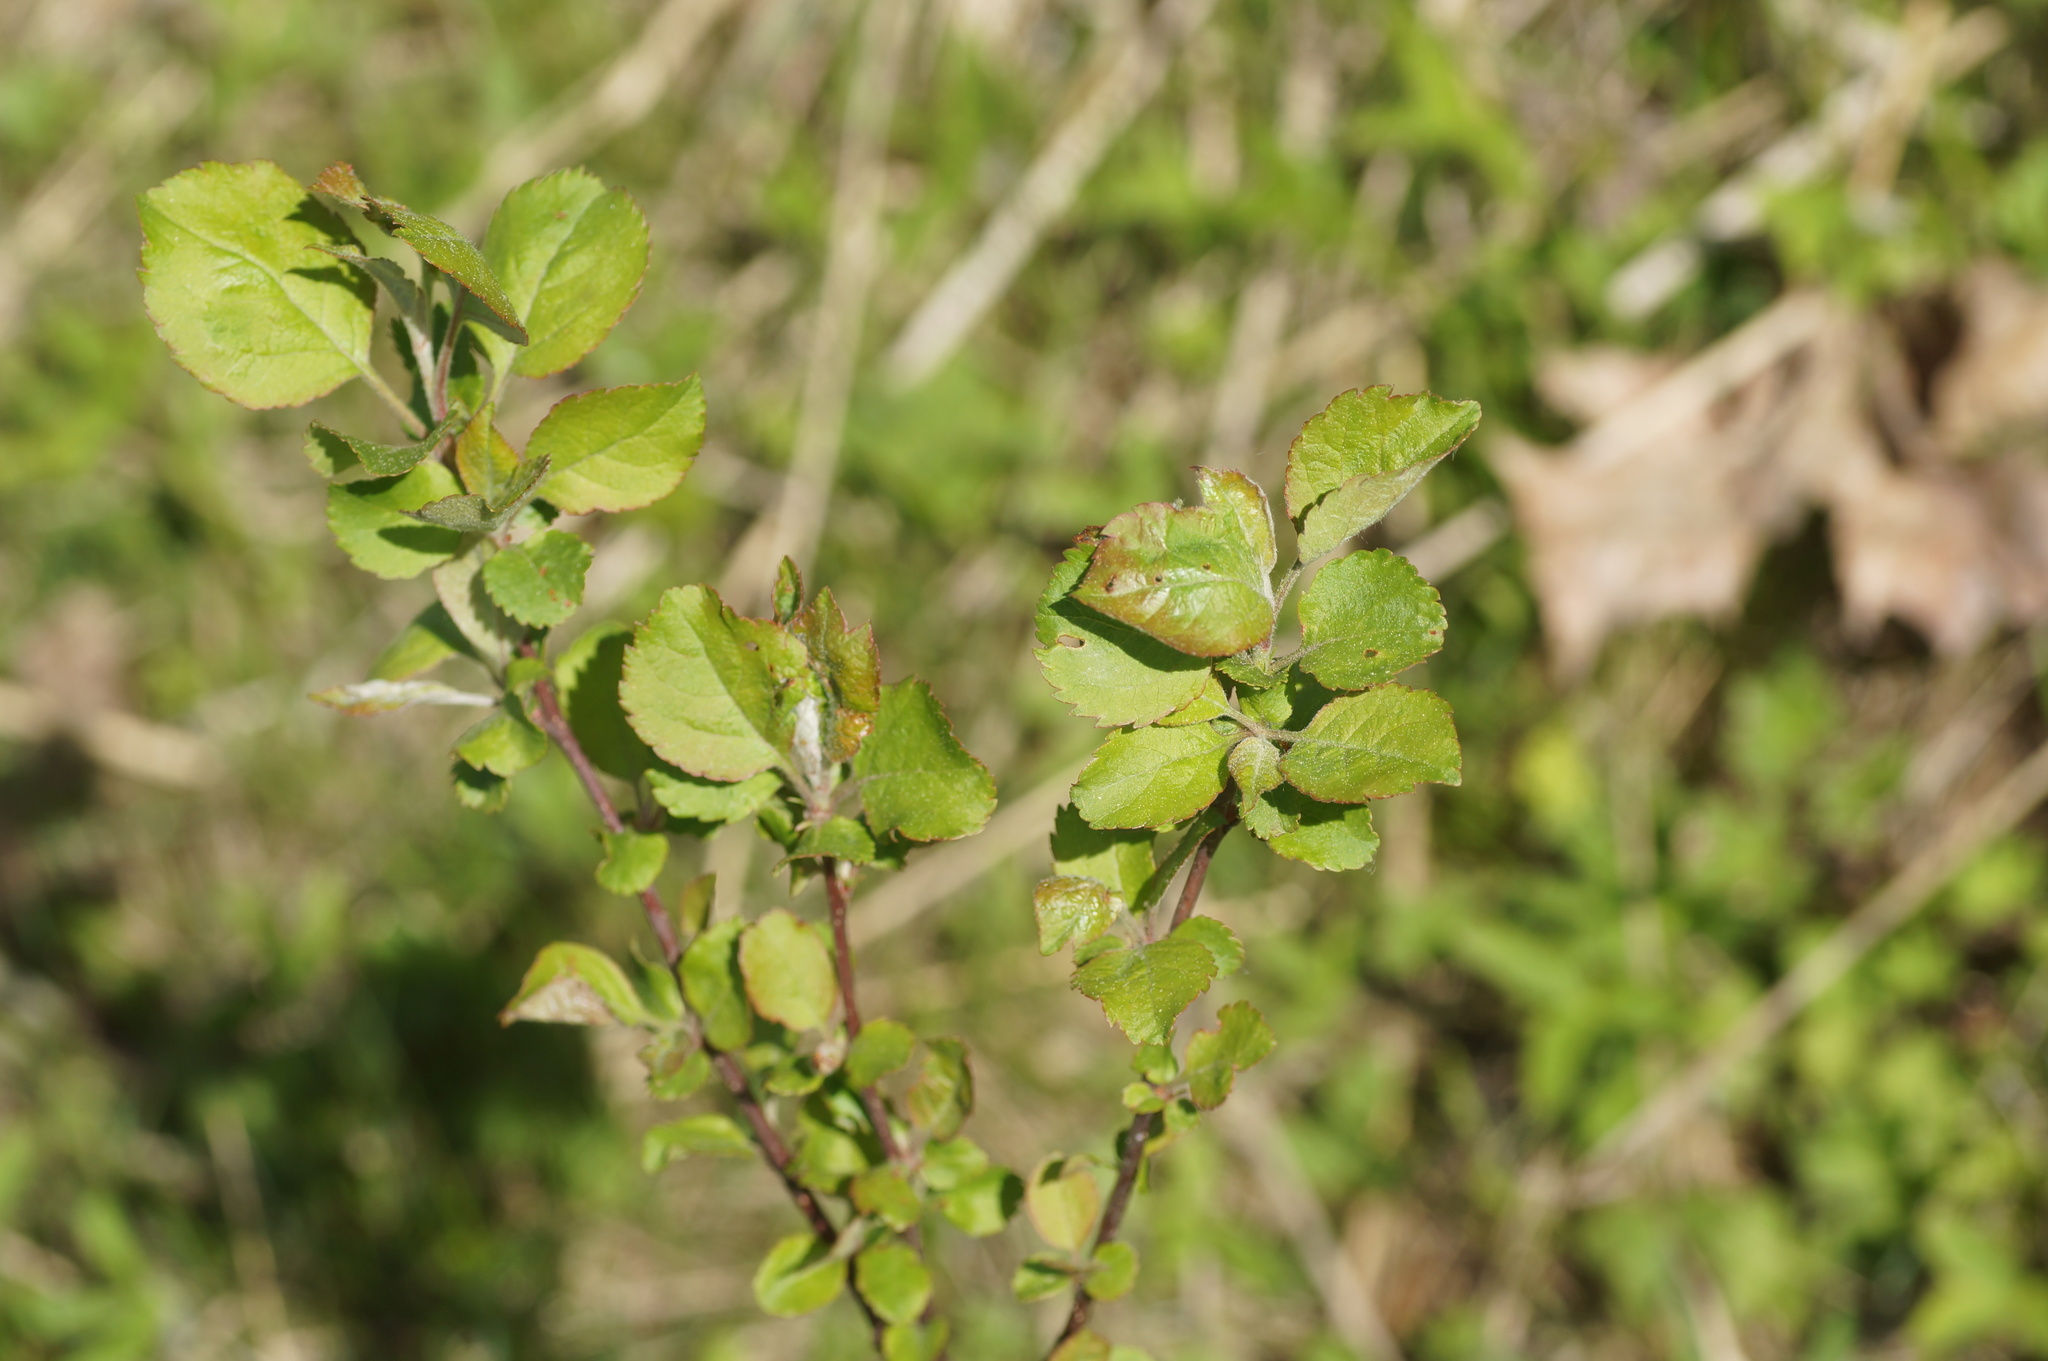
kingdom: Plantae
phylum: Tracheophyta
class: Magnoliopsida
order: Rosales
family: Rosaceae
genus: Malus
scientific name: Malus domestica
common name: Apple
